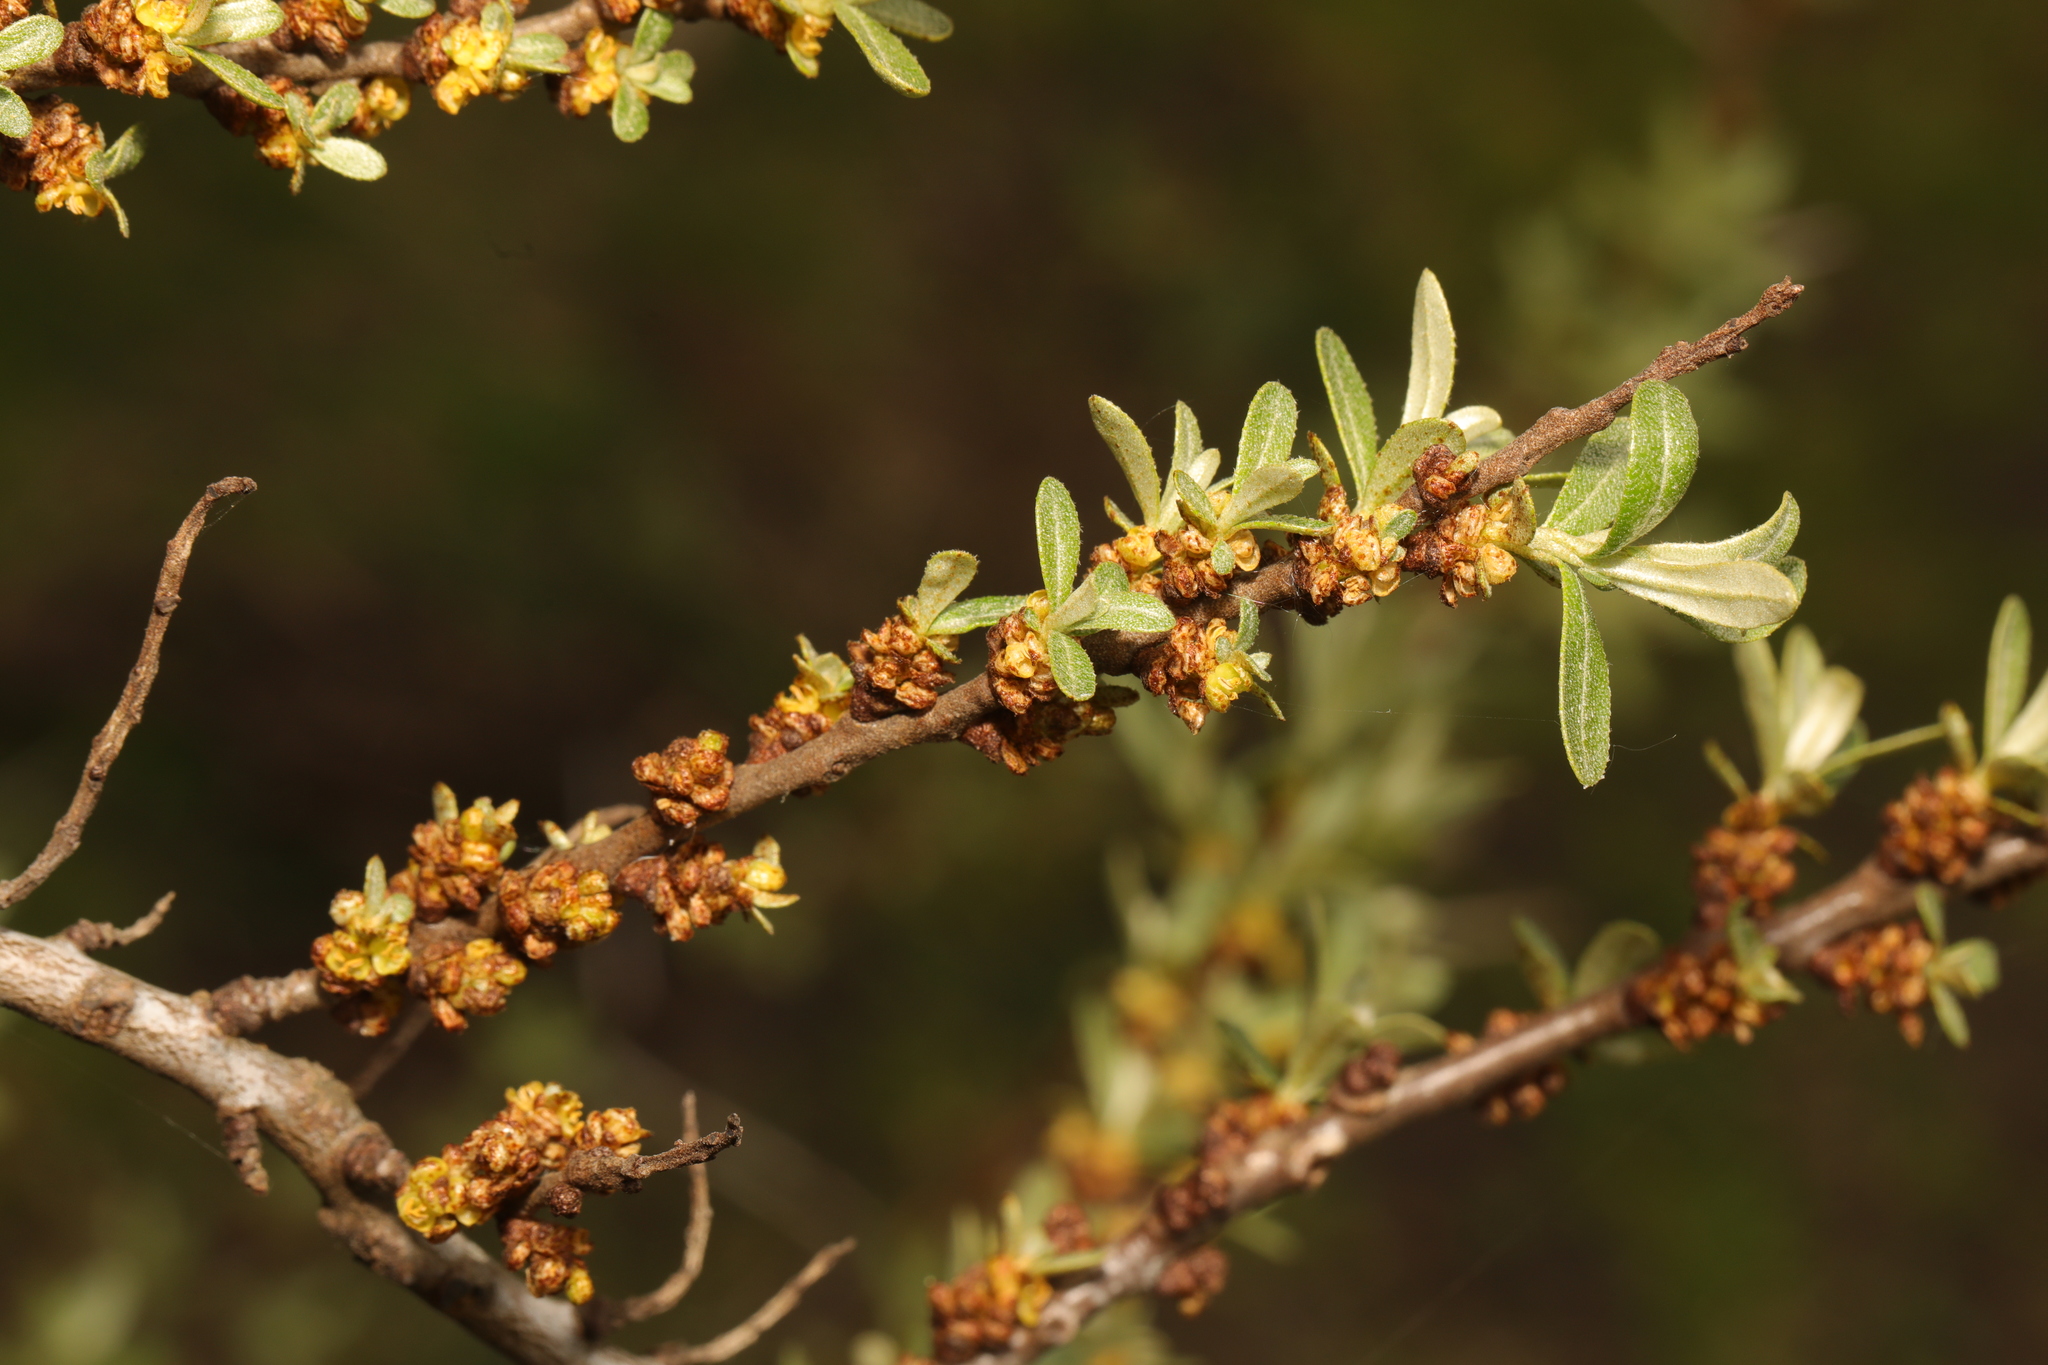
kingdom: Plantae
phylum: Tracheophyta
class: Magnoliopsida
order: Rosales
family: Elaeagnaceae
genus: Hippophae
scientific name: Hippophae rhamnoides
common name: Sea-buckthorn
